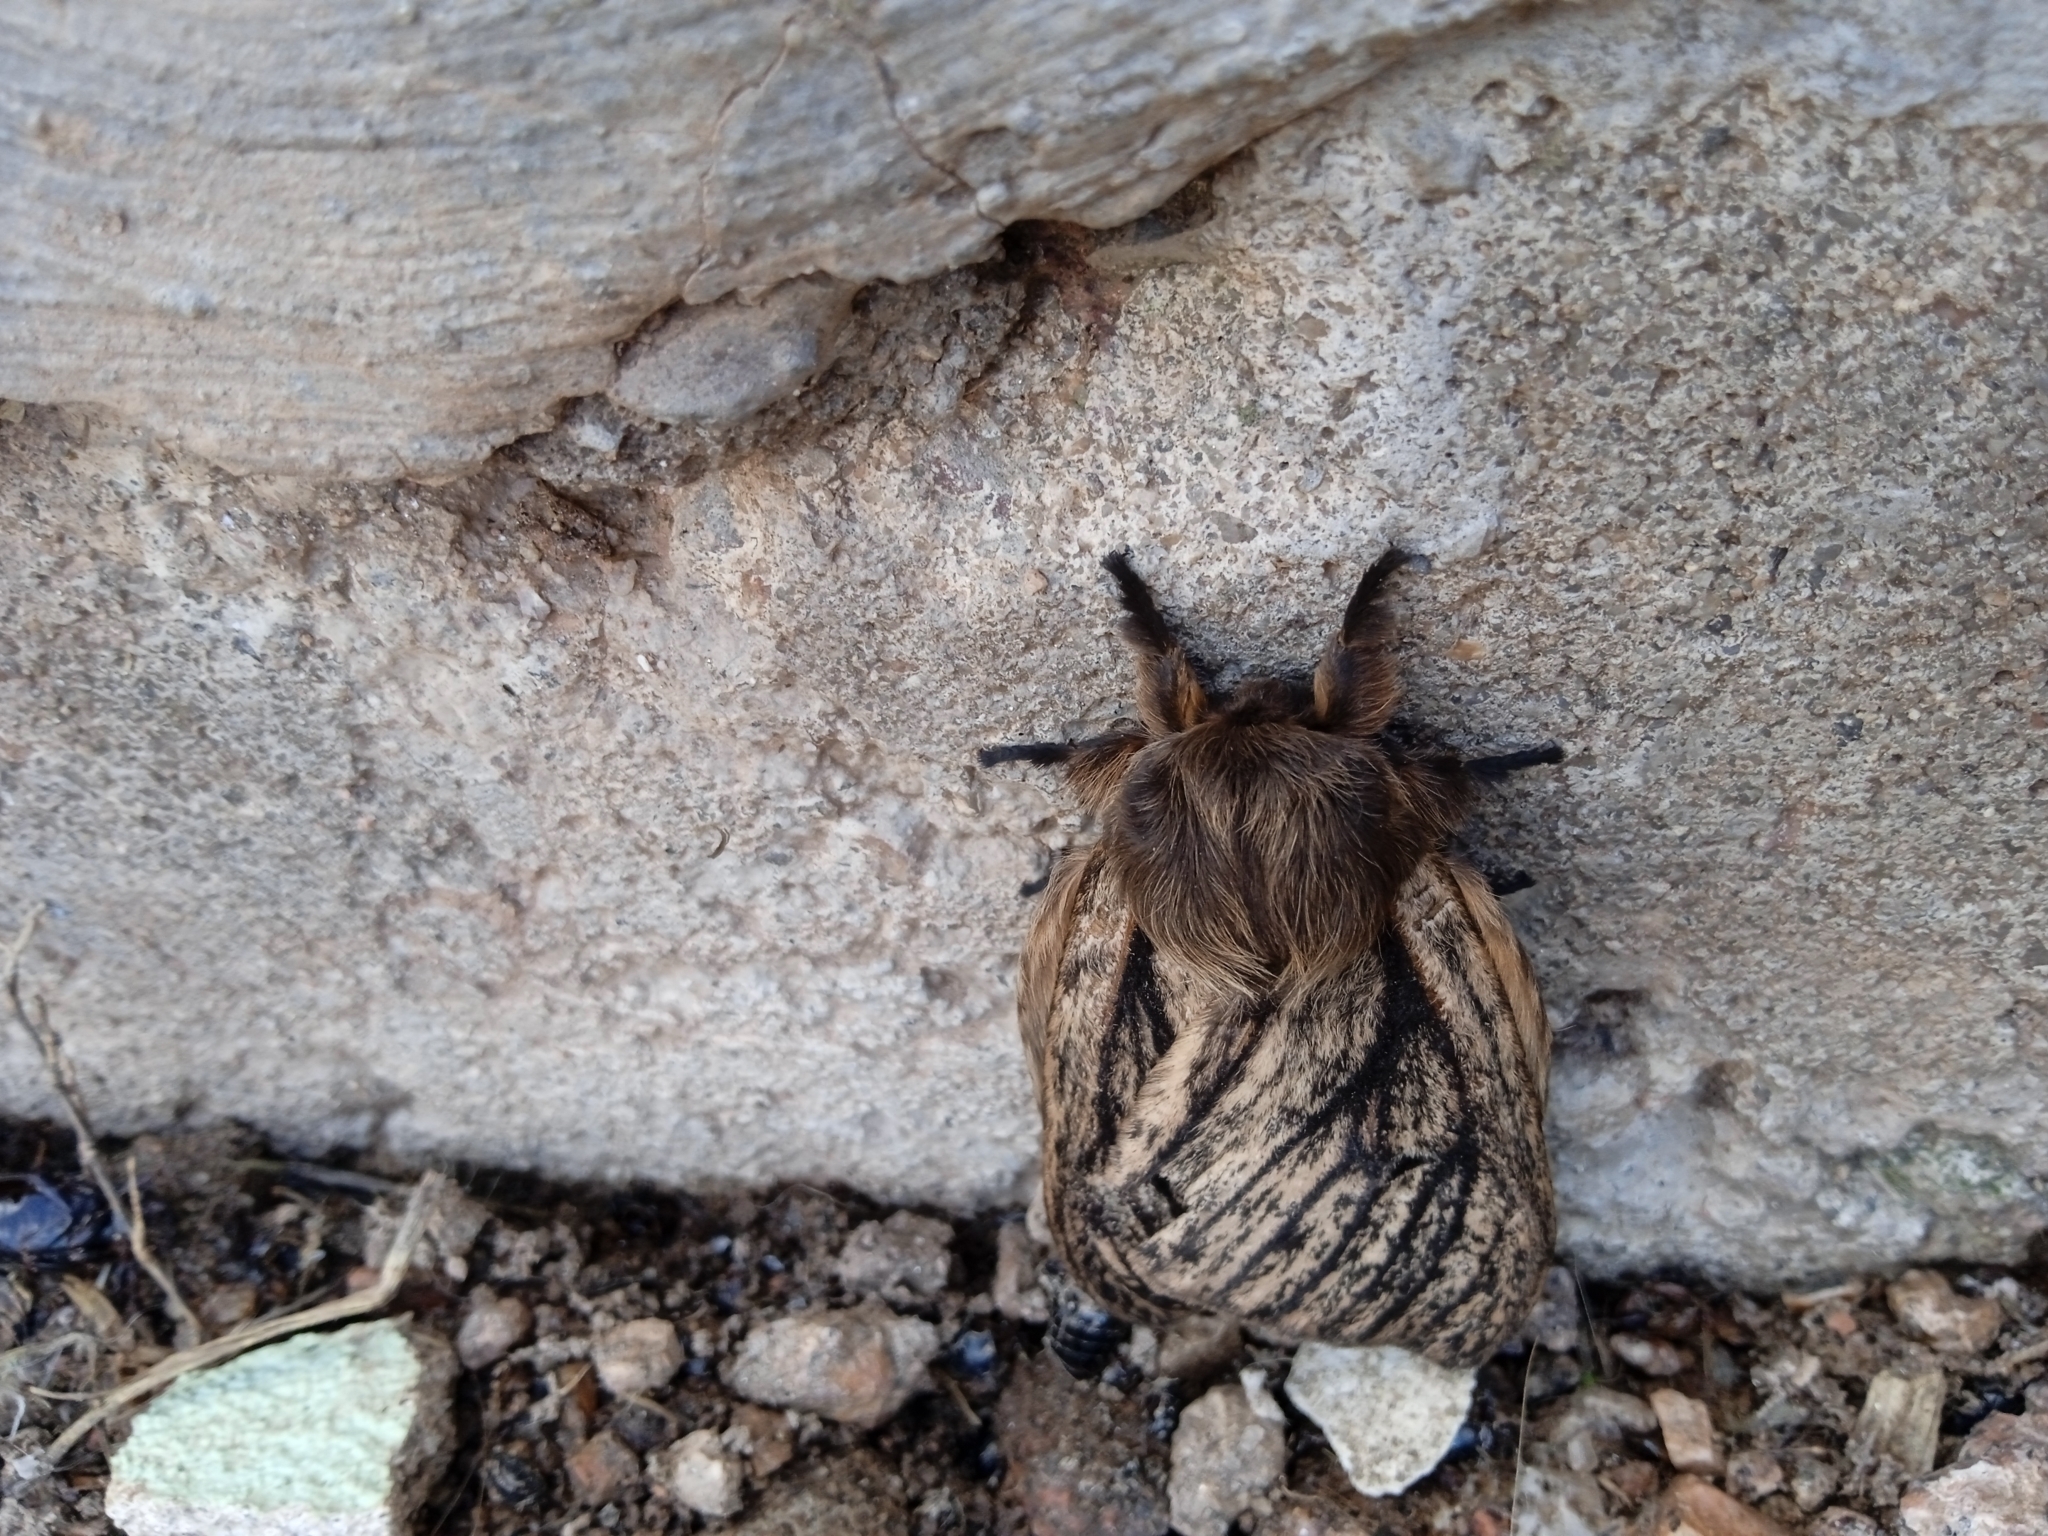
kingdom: Animalia
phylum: Arthropoda
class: Insecta
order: Lepidoptera
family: Saturniidae
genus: Eudyaria
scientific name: Eudyaria zeta
